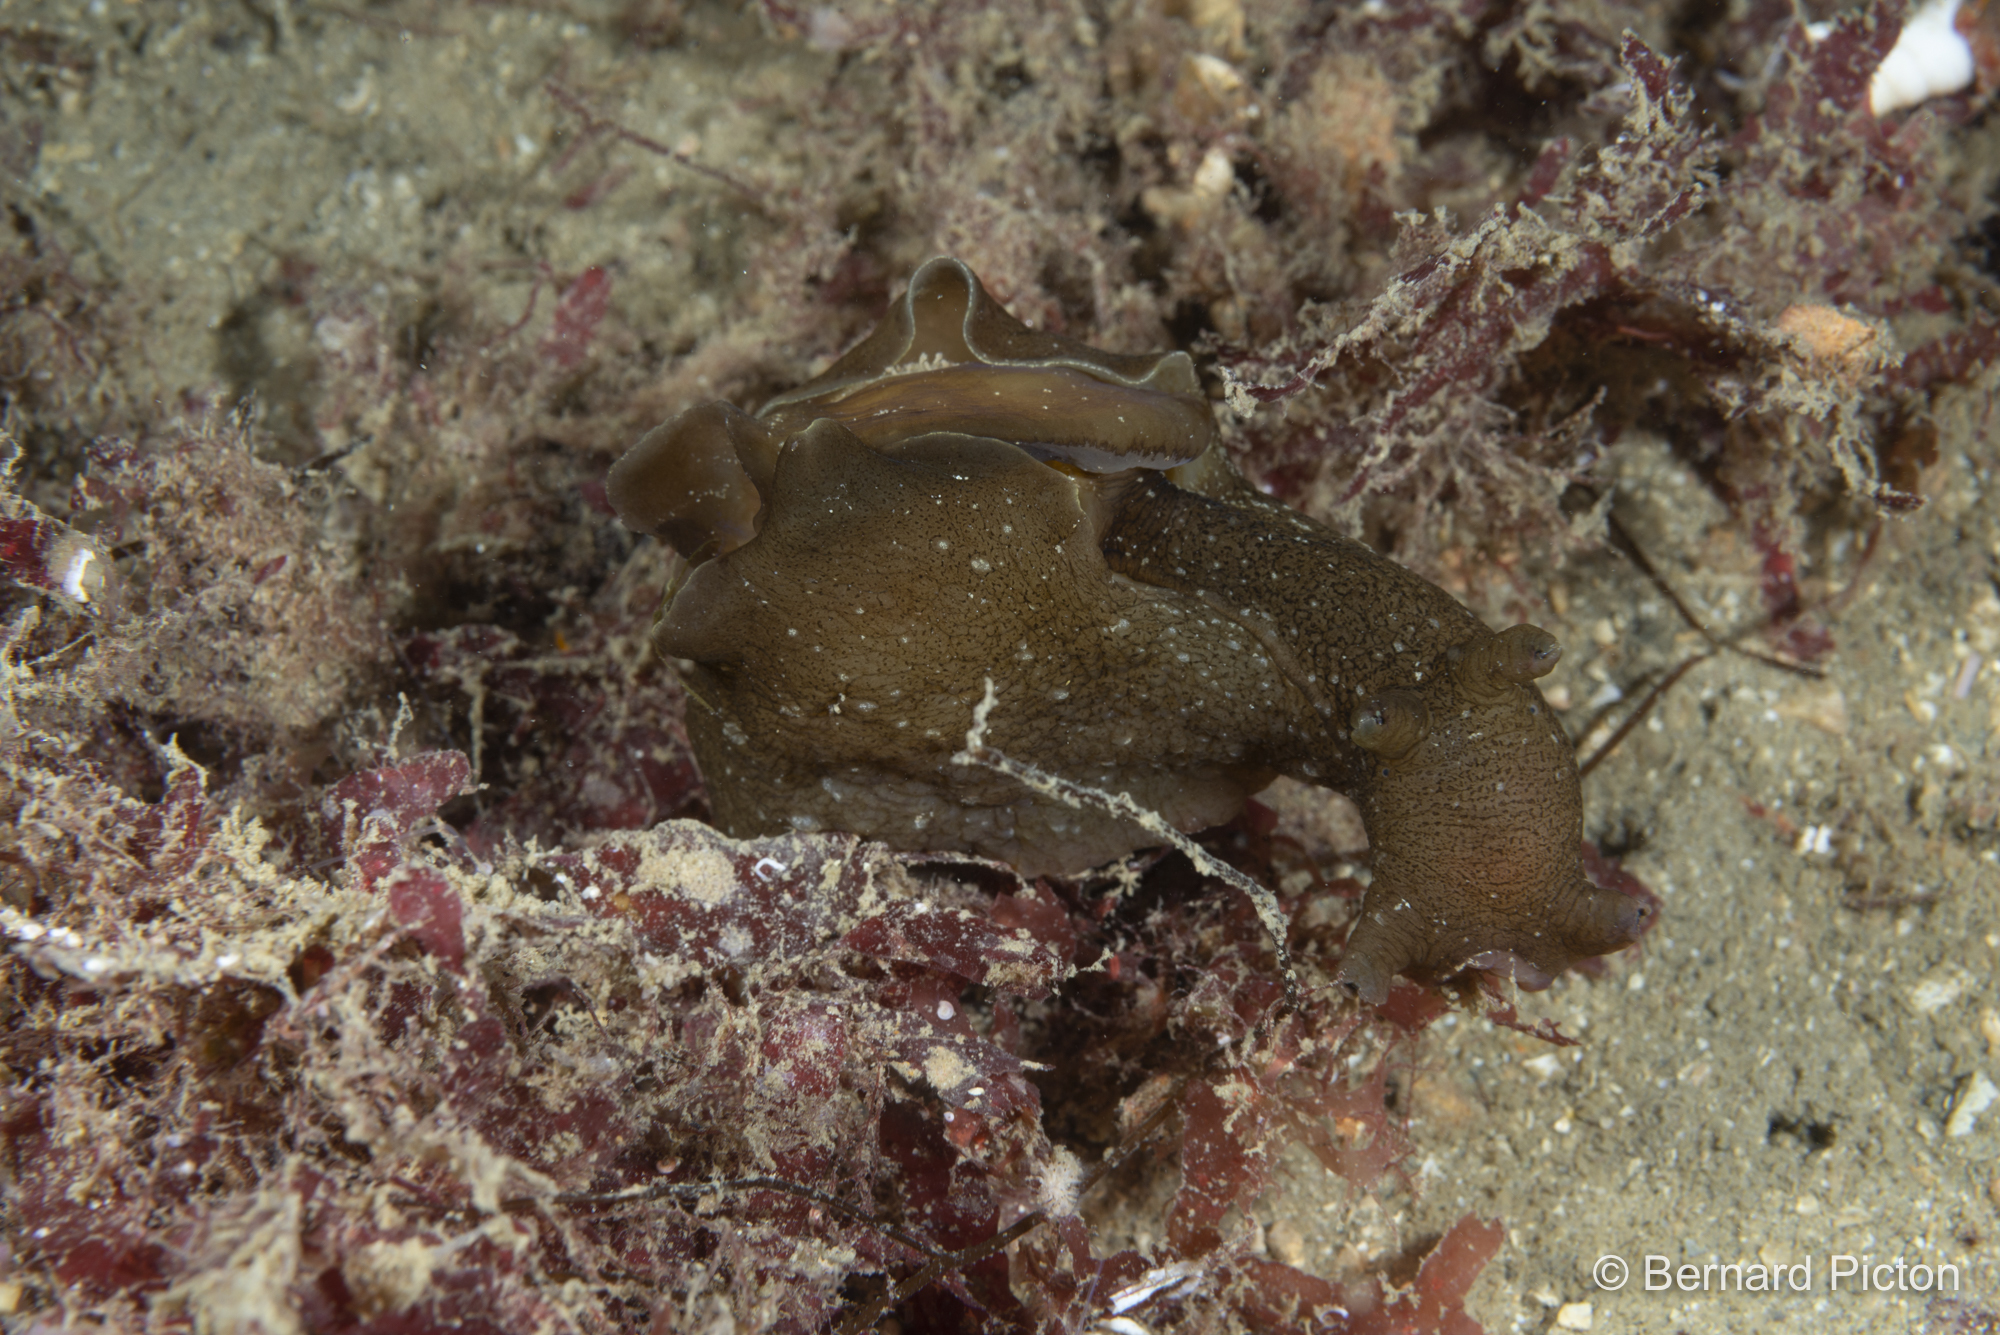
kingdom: Animalia
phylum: Mollusca
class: Gastropoda
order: Aplysiida
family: Aplysiidae
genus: Aplysia
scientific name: Aplysia punctata
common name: Common sea hare
